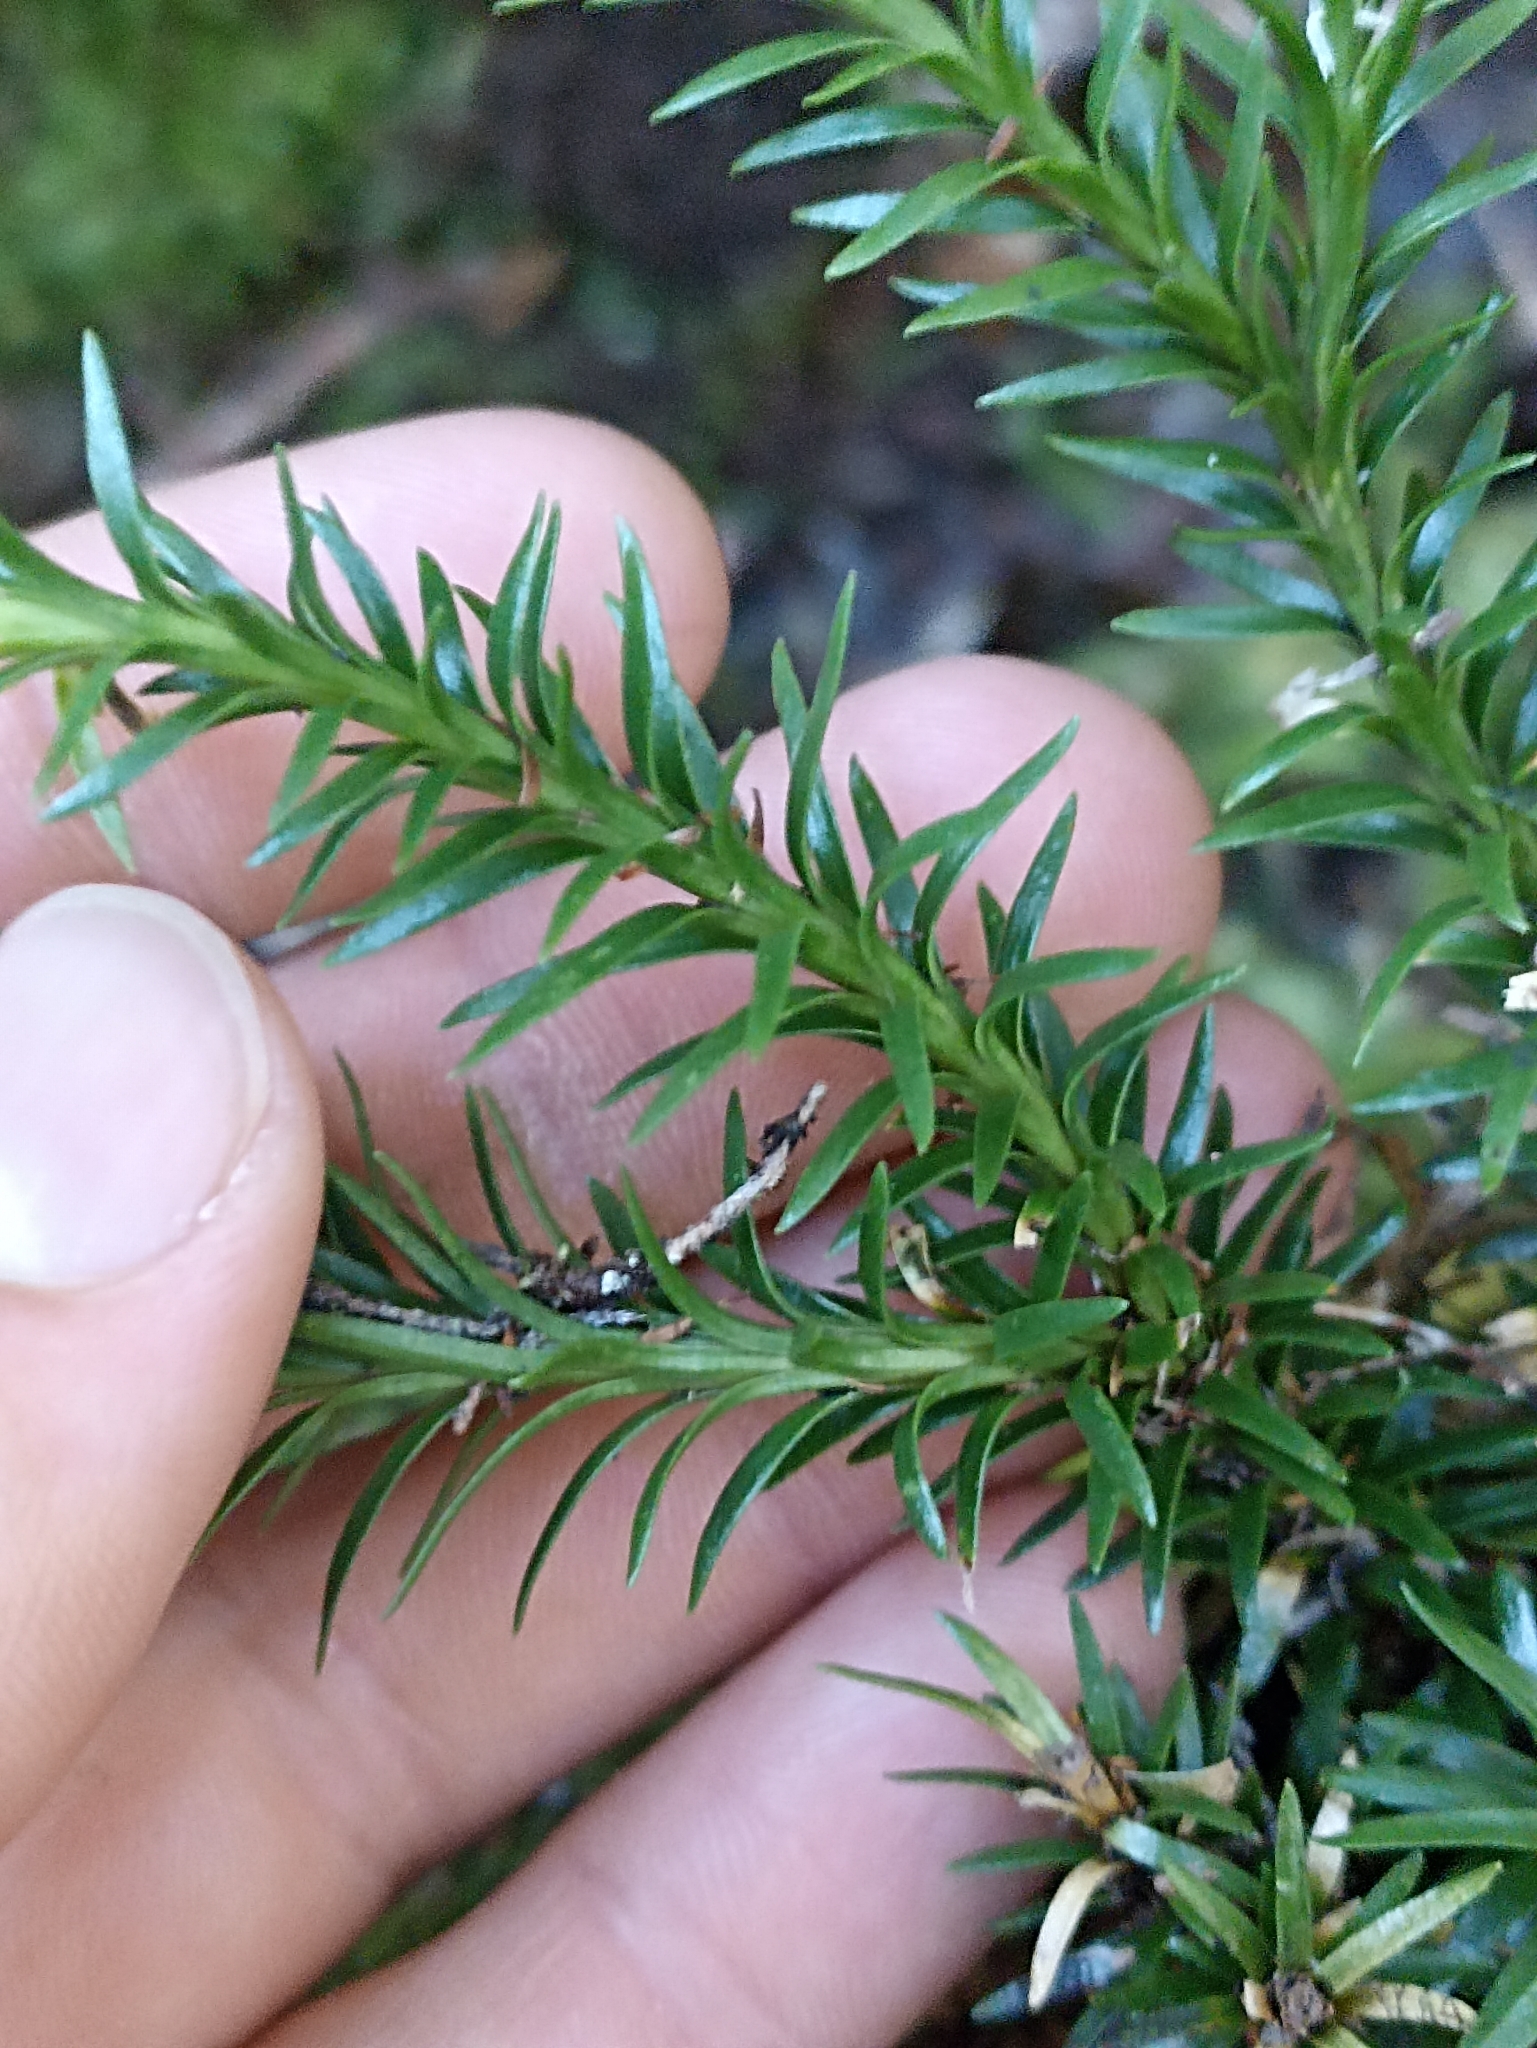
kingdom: Plantae
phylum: Tracheophyta
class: Lycopodiopsida
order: Lycopodiales
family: Lycopodiaceae
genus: Phlegmariurus
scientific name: Phlegmariurus
